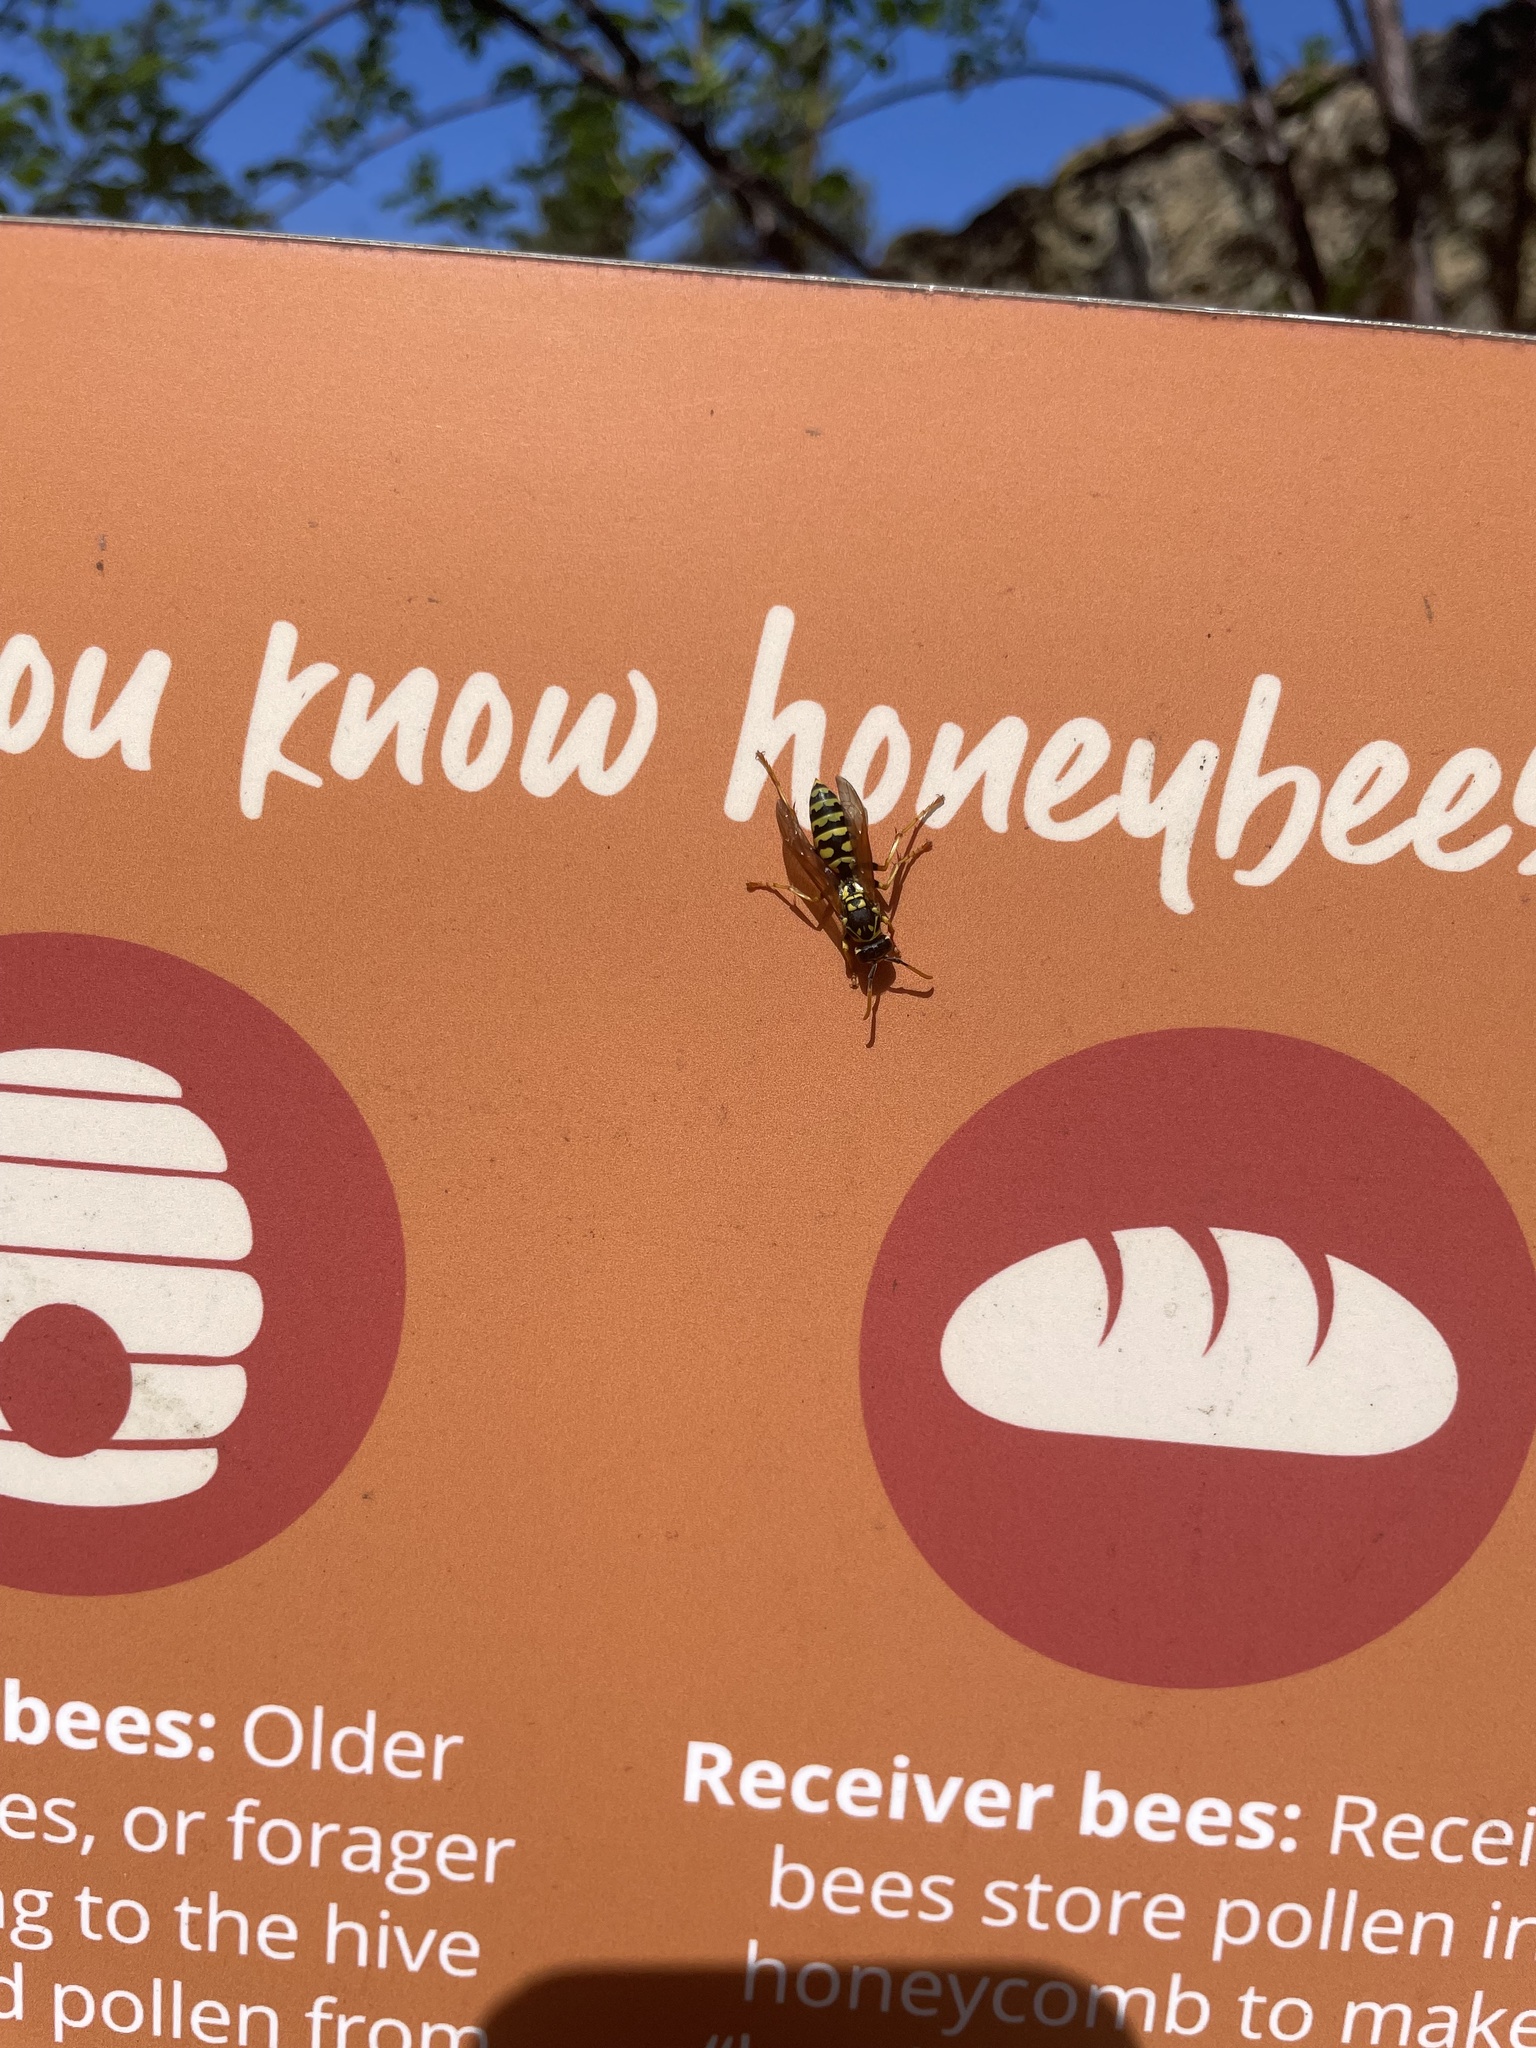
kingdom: Animalia
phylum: Arthropoda
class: Insecta
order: Hymenoptera
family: Eumenidae
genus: Polistes
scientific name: Polistes dominula
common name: Paper wasp
